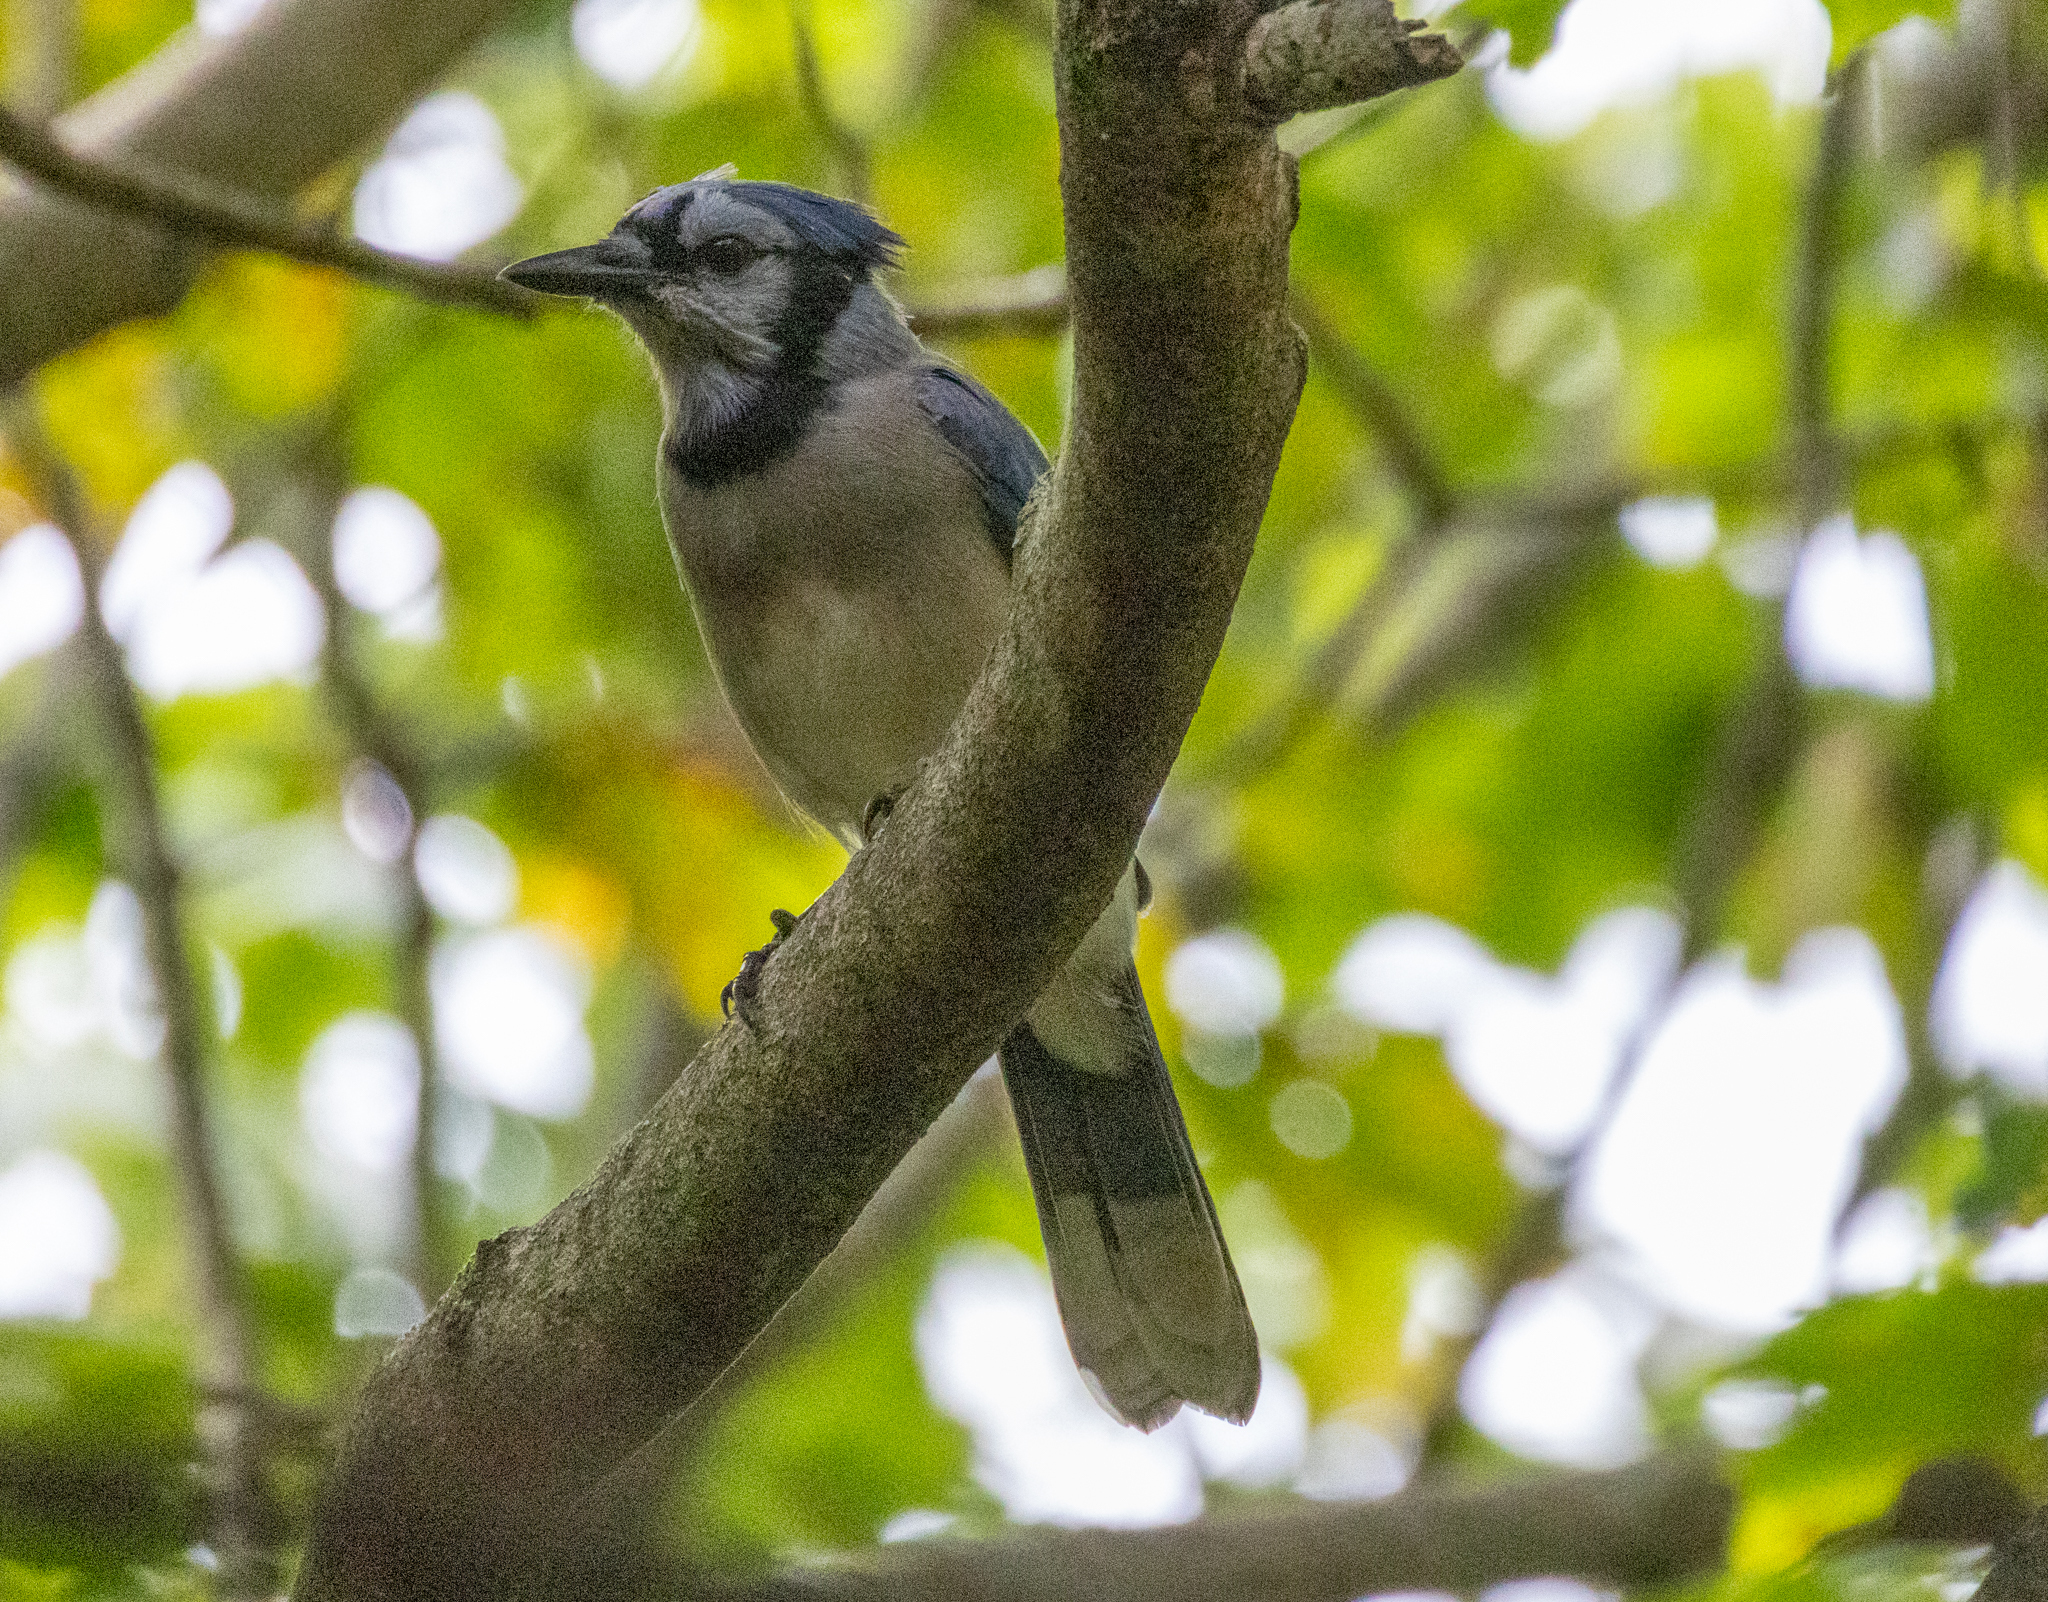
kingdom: Animalia
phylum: Chordata
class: Aves
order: Passeriformes
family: Corvidae
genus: Cyanocitta
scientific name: Cyanocitta cristata
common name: Blue jay
